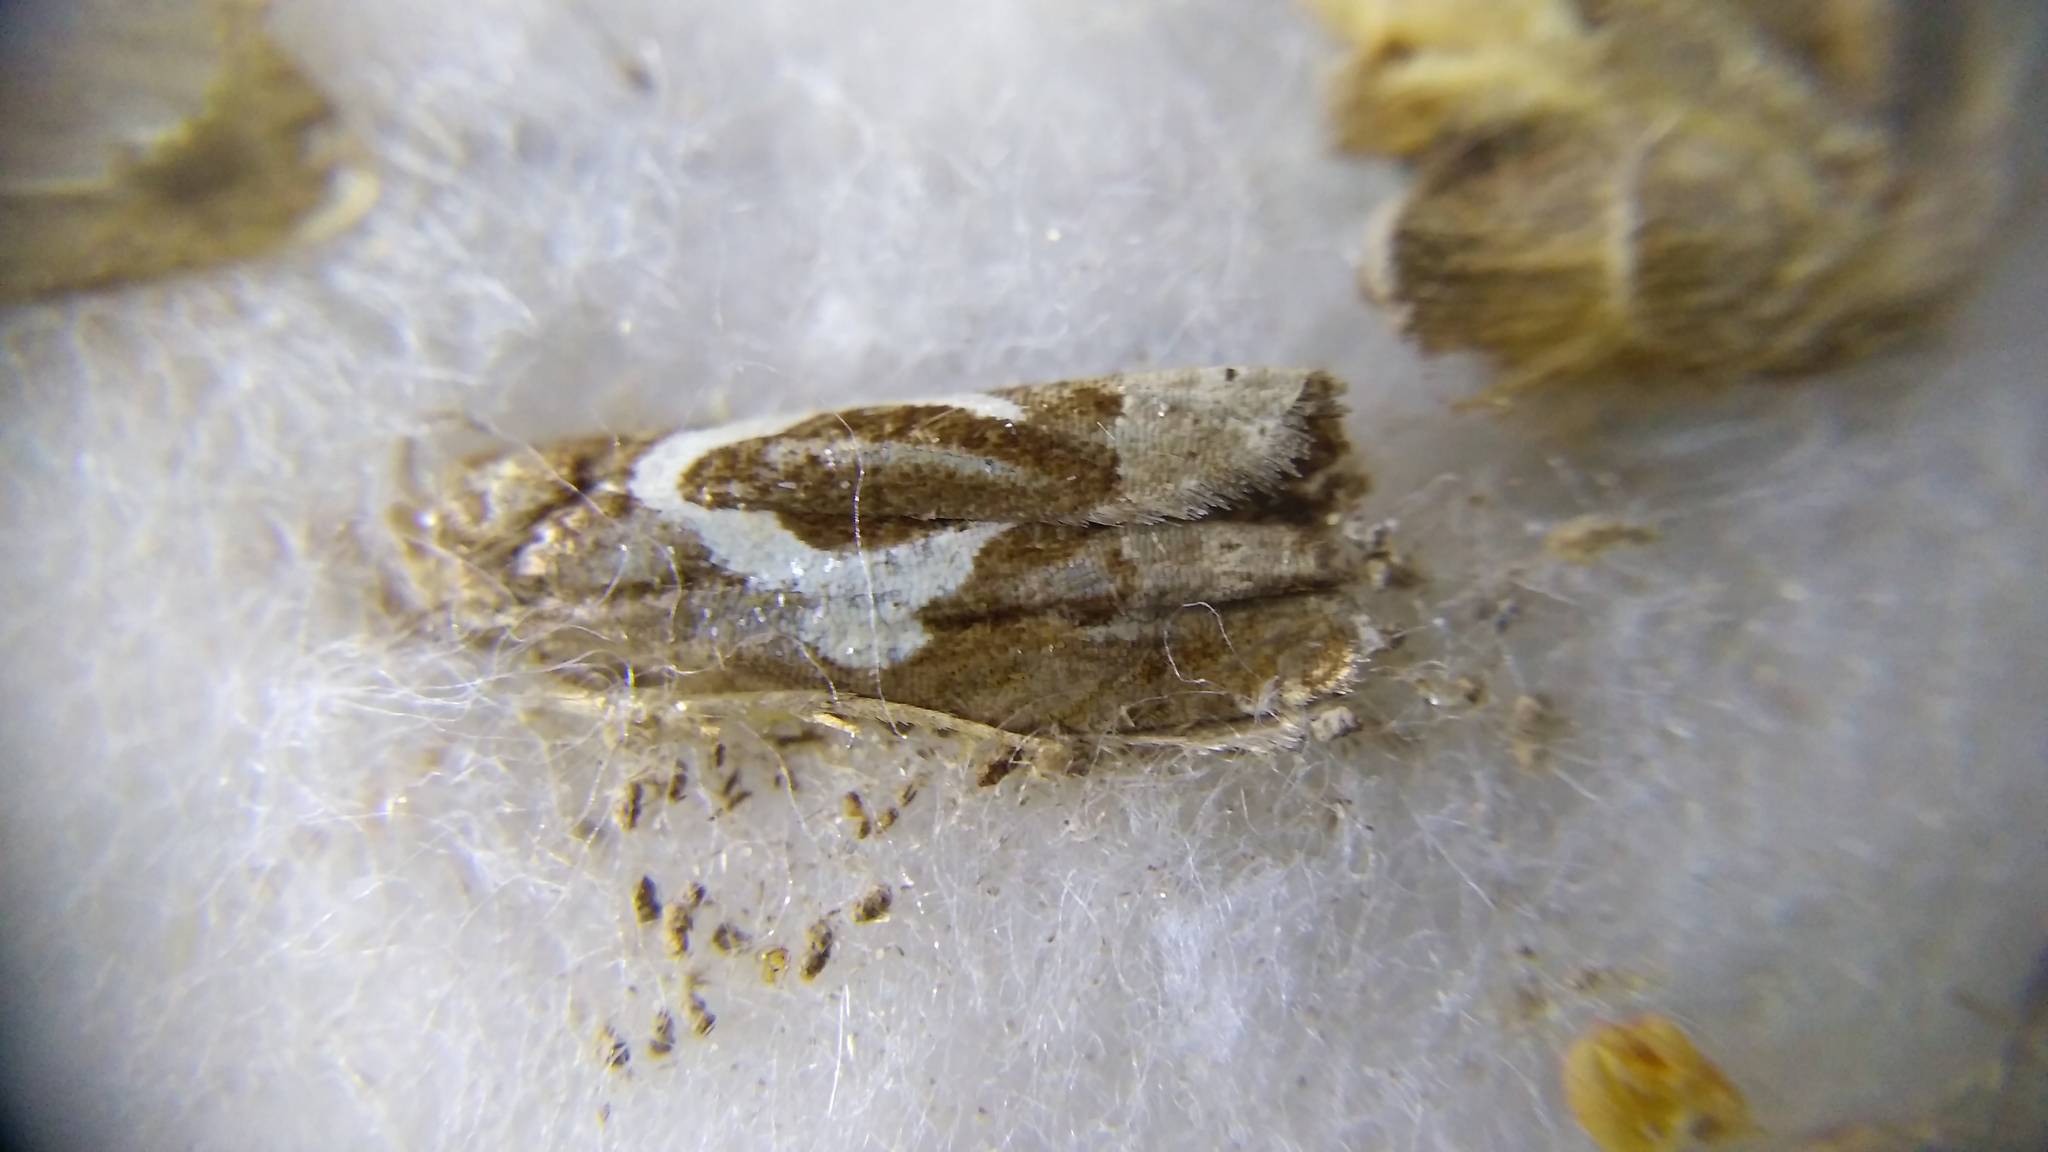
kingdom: Animalia
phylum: Arthropoda
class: Insecta
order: Lepidoptera
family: Tortricidae
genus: Epiblema
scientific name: Epiblema foenella
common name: White-foot bell
